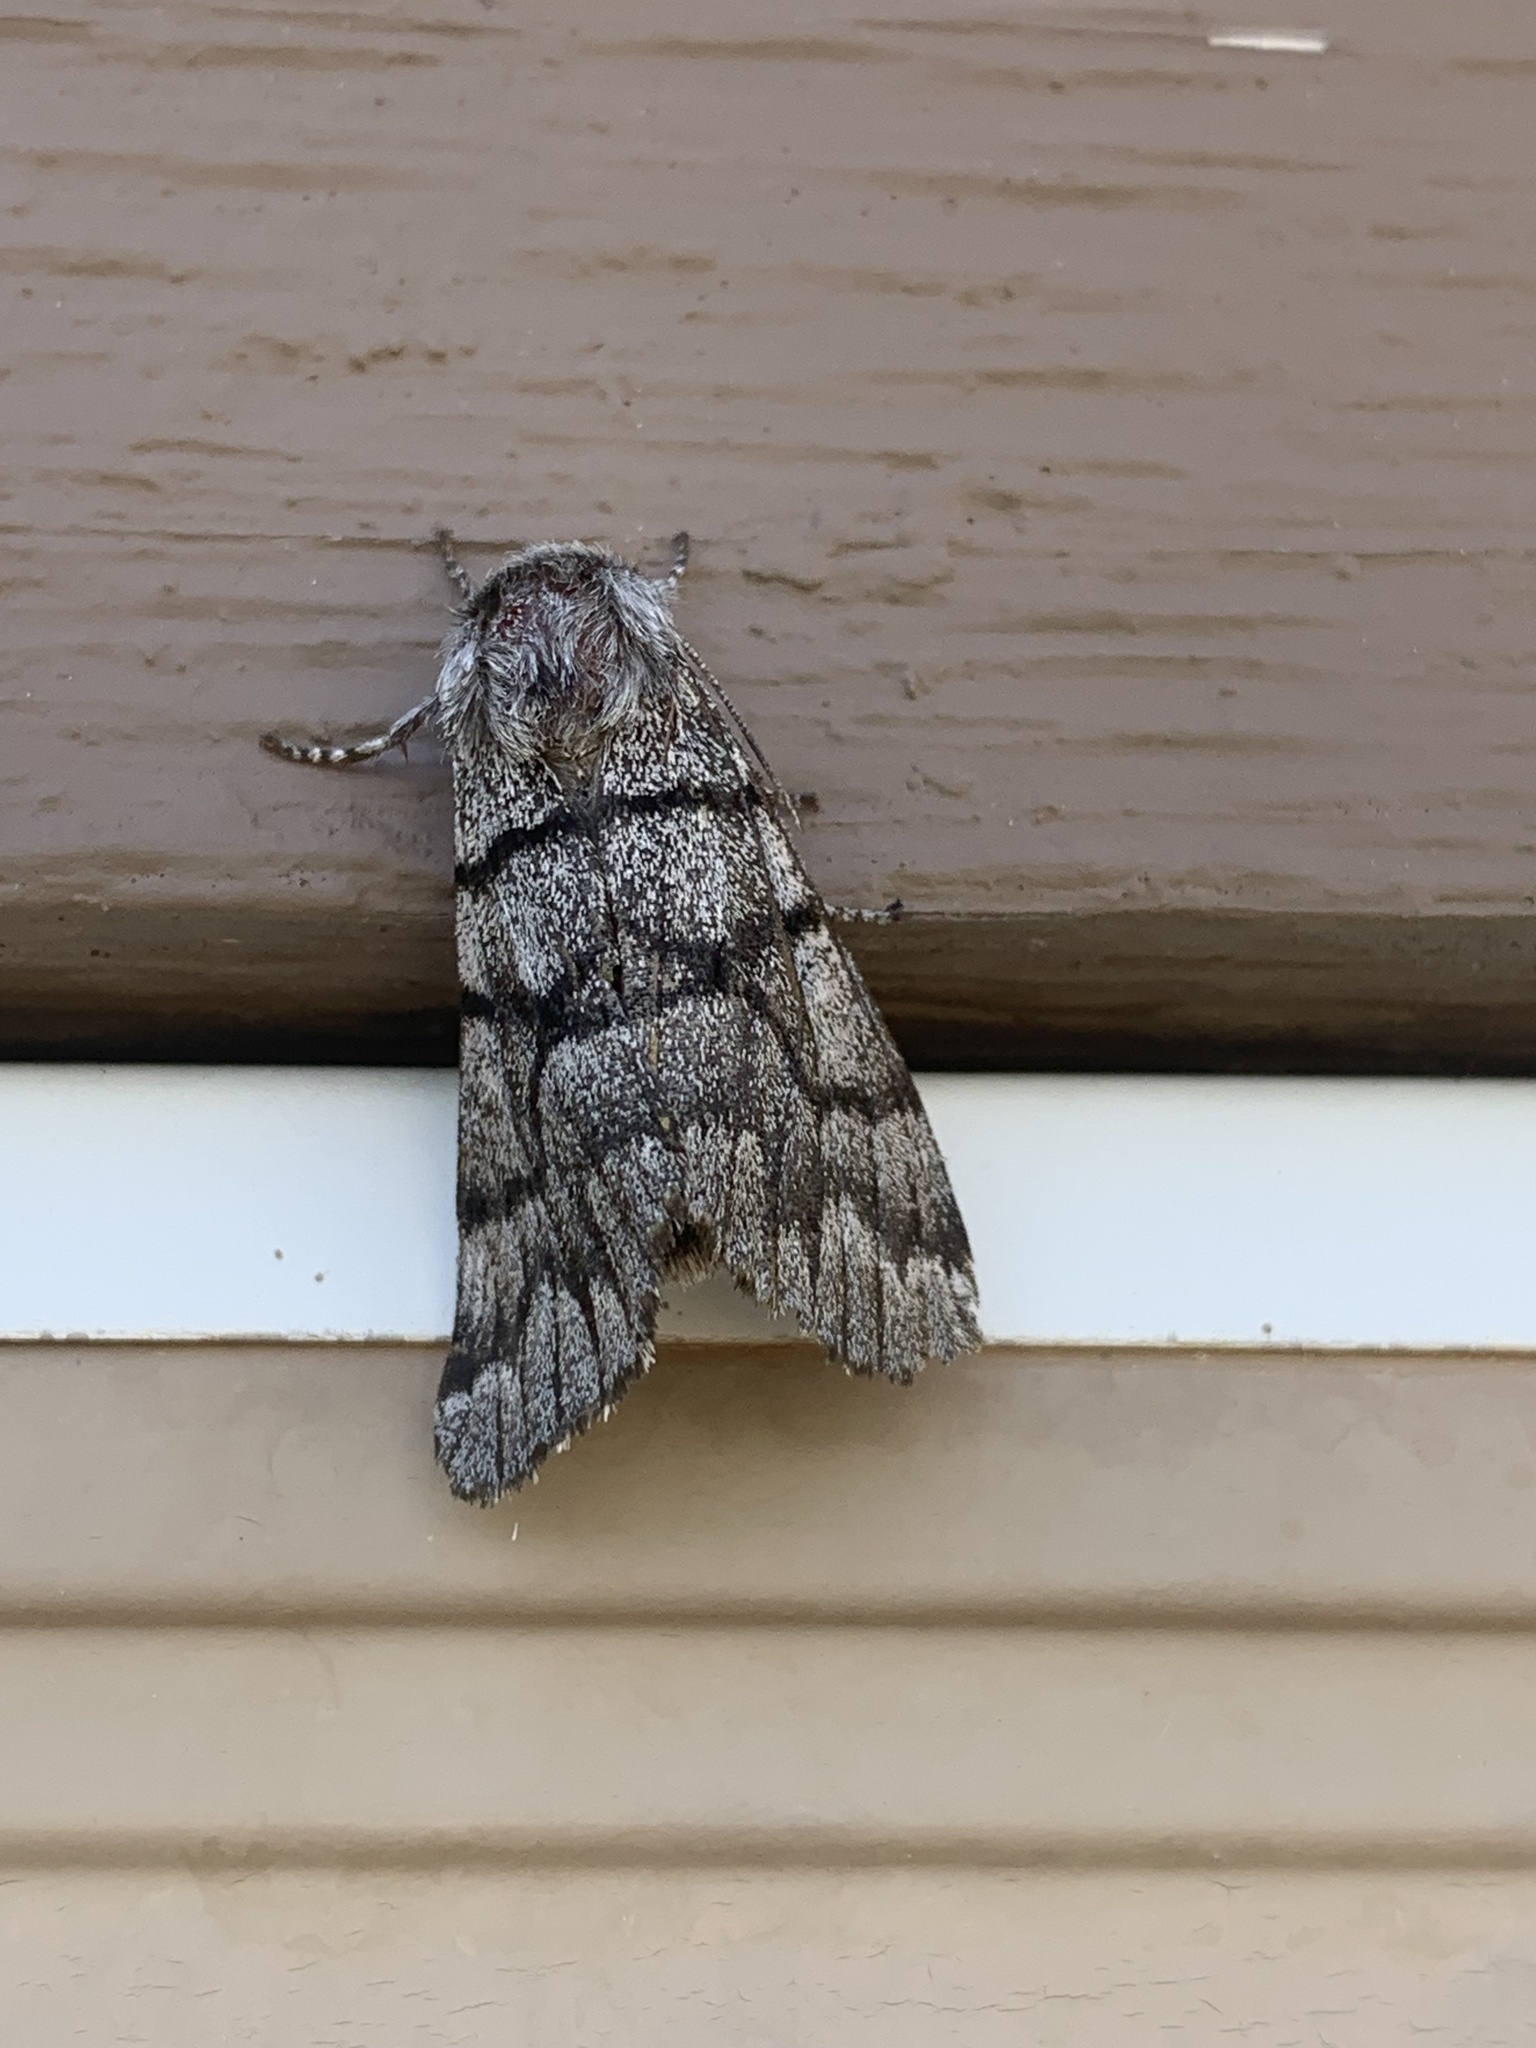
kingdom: Animalia
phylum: Arthropoda
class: Insecta
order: Lepidoptera
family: Noctuidae
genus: Panthea
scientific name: Panthea furcilla
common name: Eastern panthea moth
